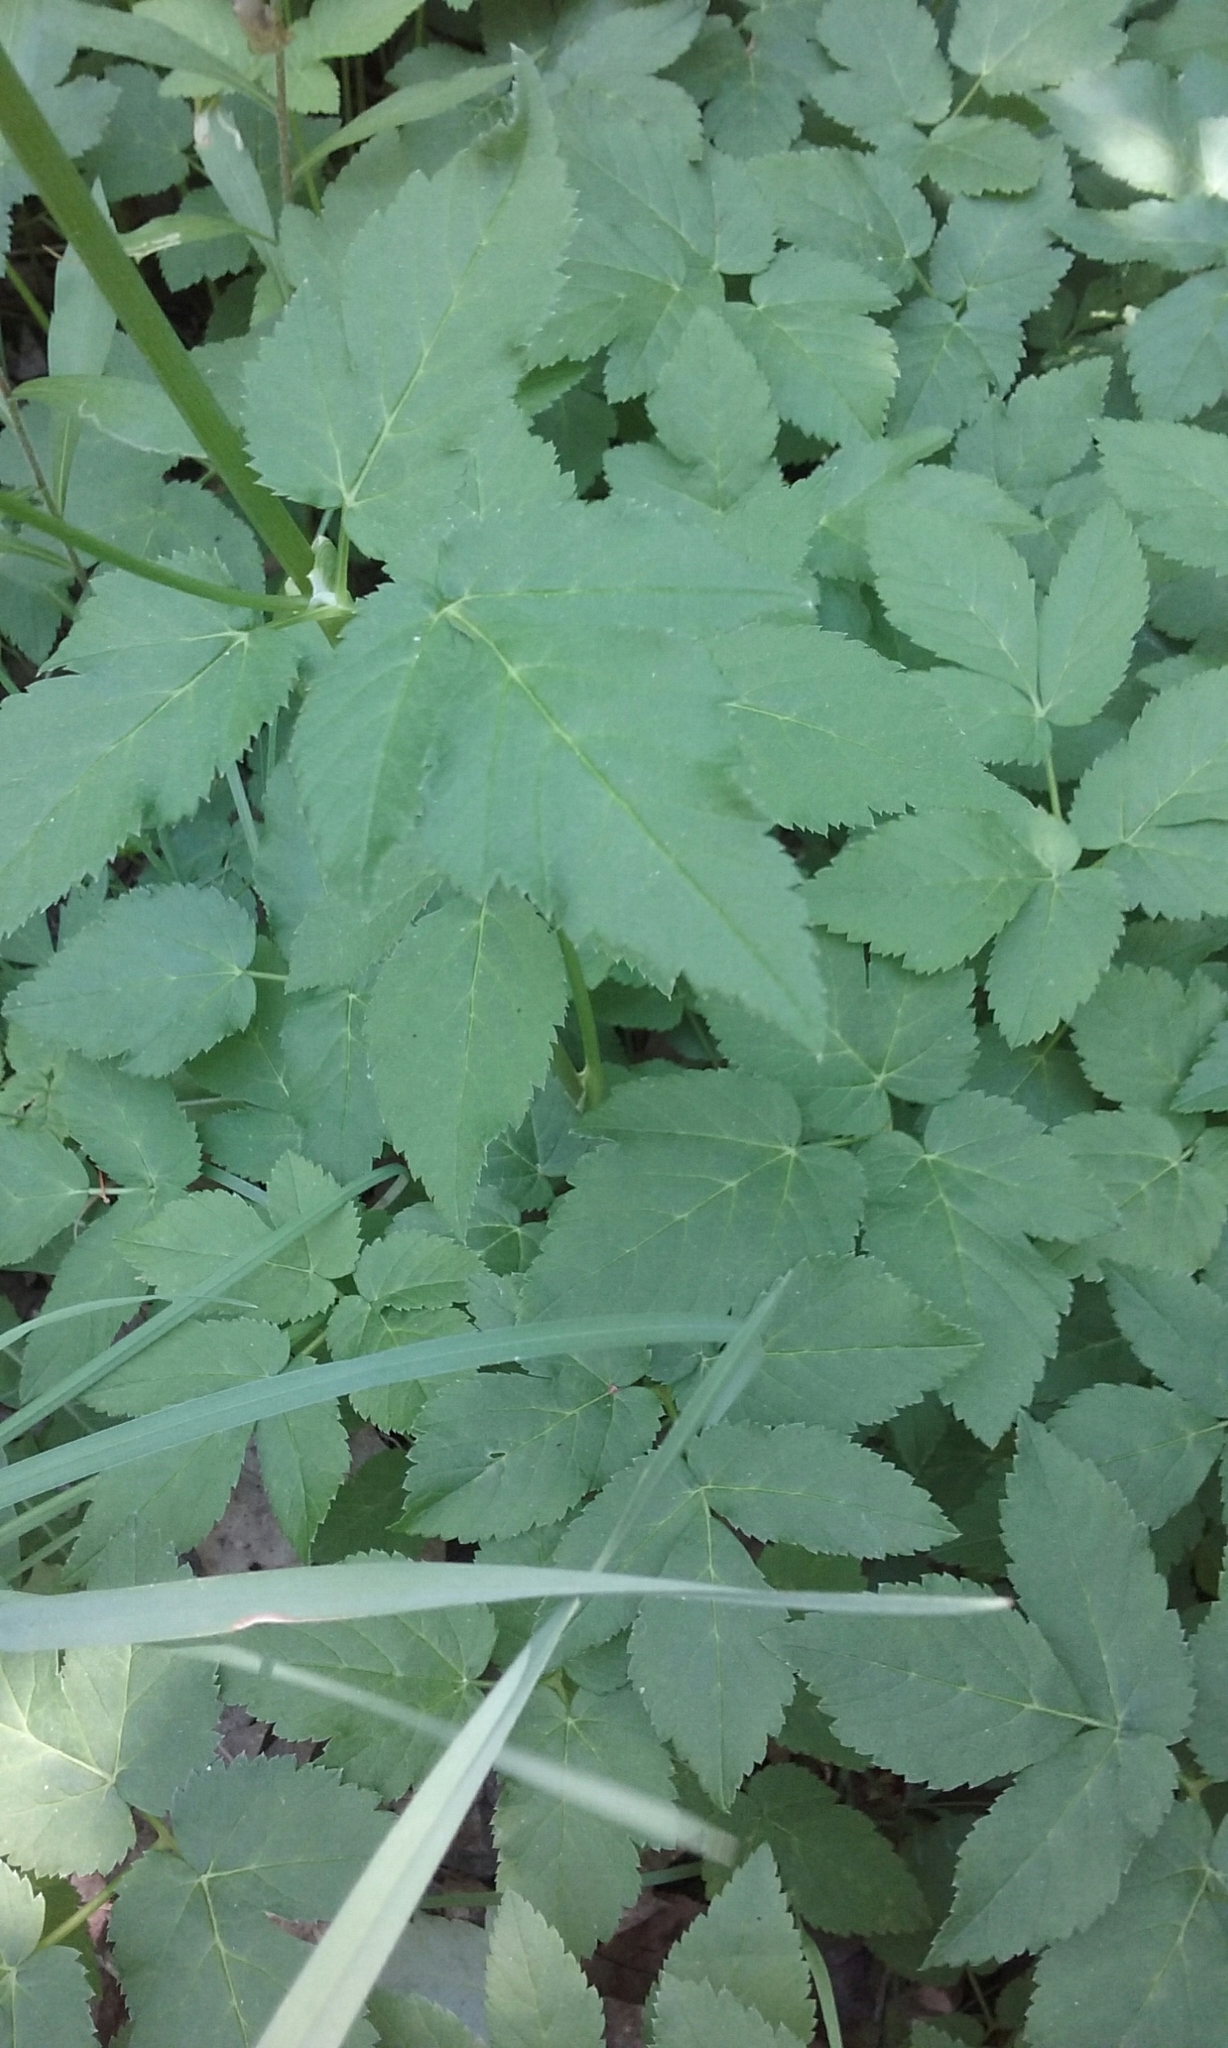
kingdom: Plantae
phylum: Tracheophyta
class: Magnoliopsida
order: Apiales
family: Apiaceae
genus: Aegopodium
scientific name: Aegopodium podagraria
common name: Ground-elder
